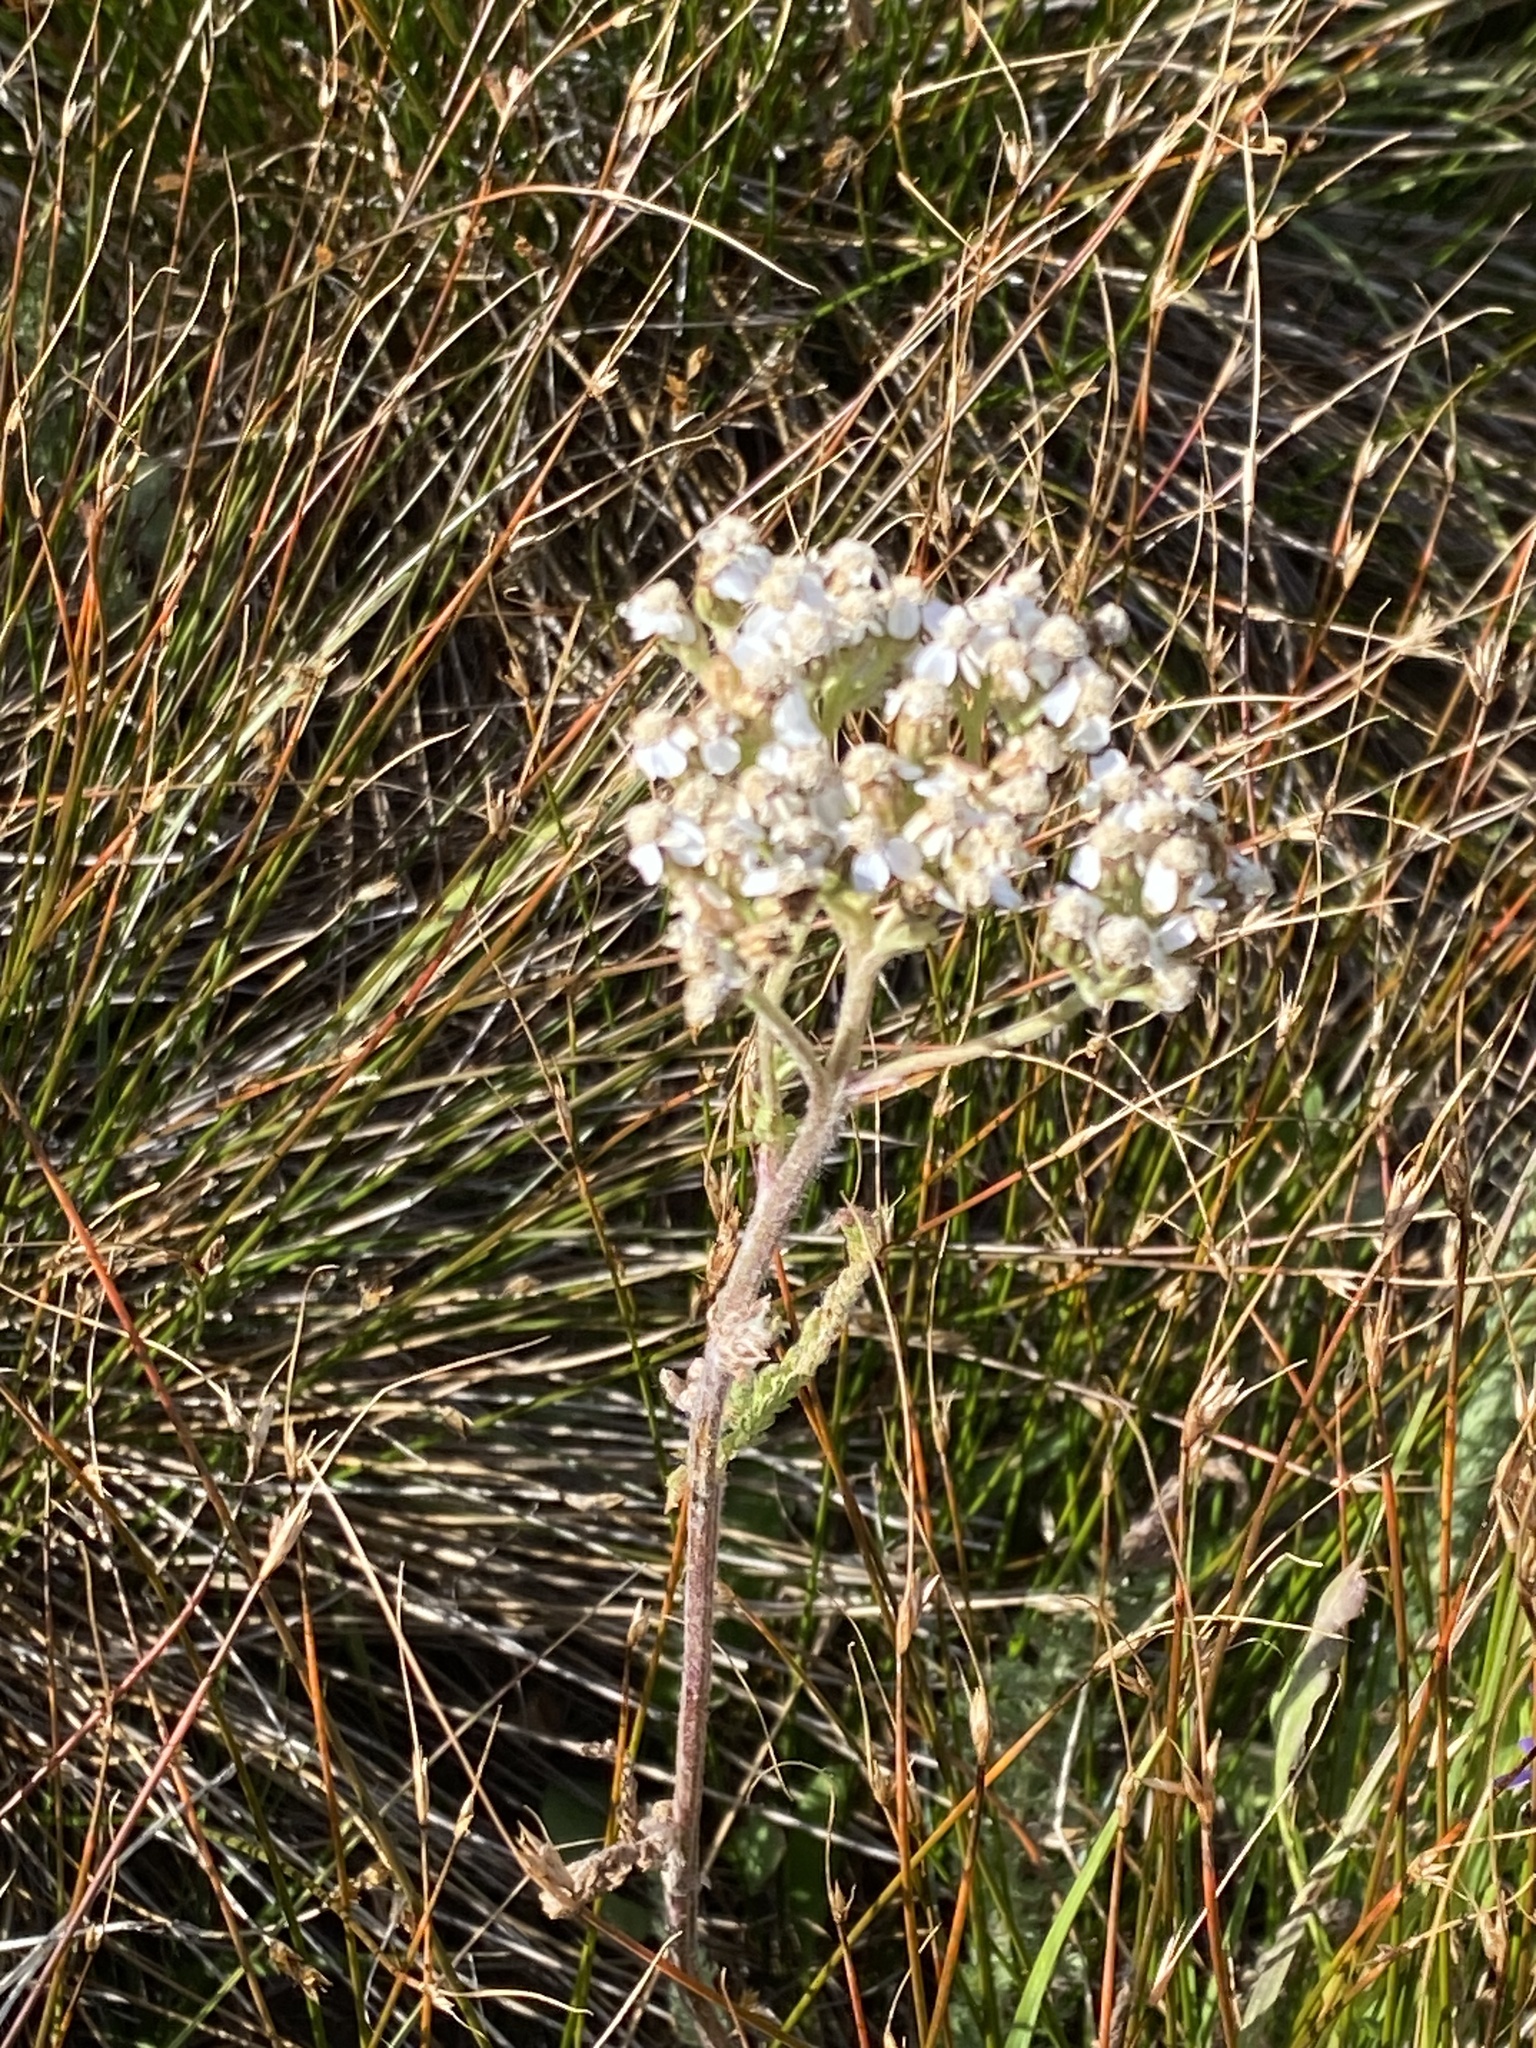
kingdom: Plantae
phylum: Tracheophyta
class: Magnoliopsida
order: Asterales
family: Asteraceae
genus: Achillea
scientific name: Achillea millefolium
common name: Yarrow
